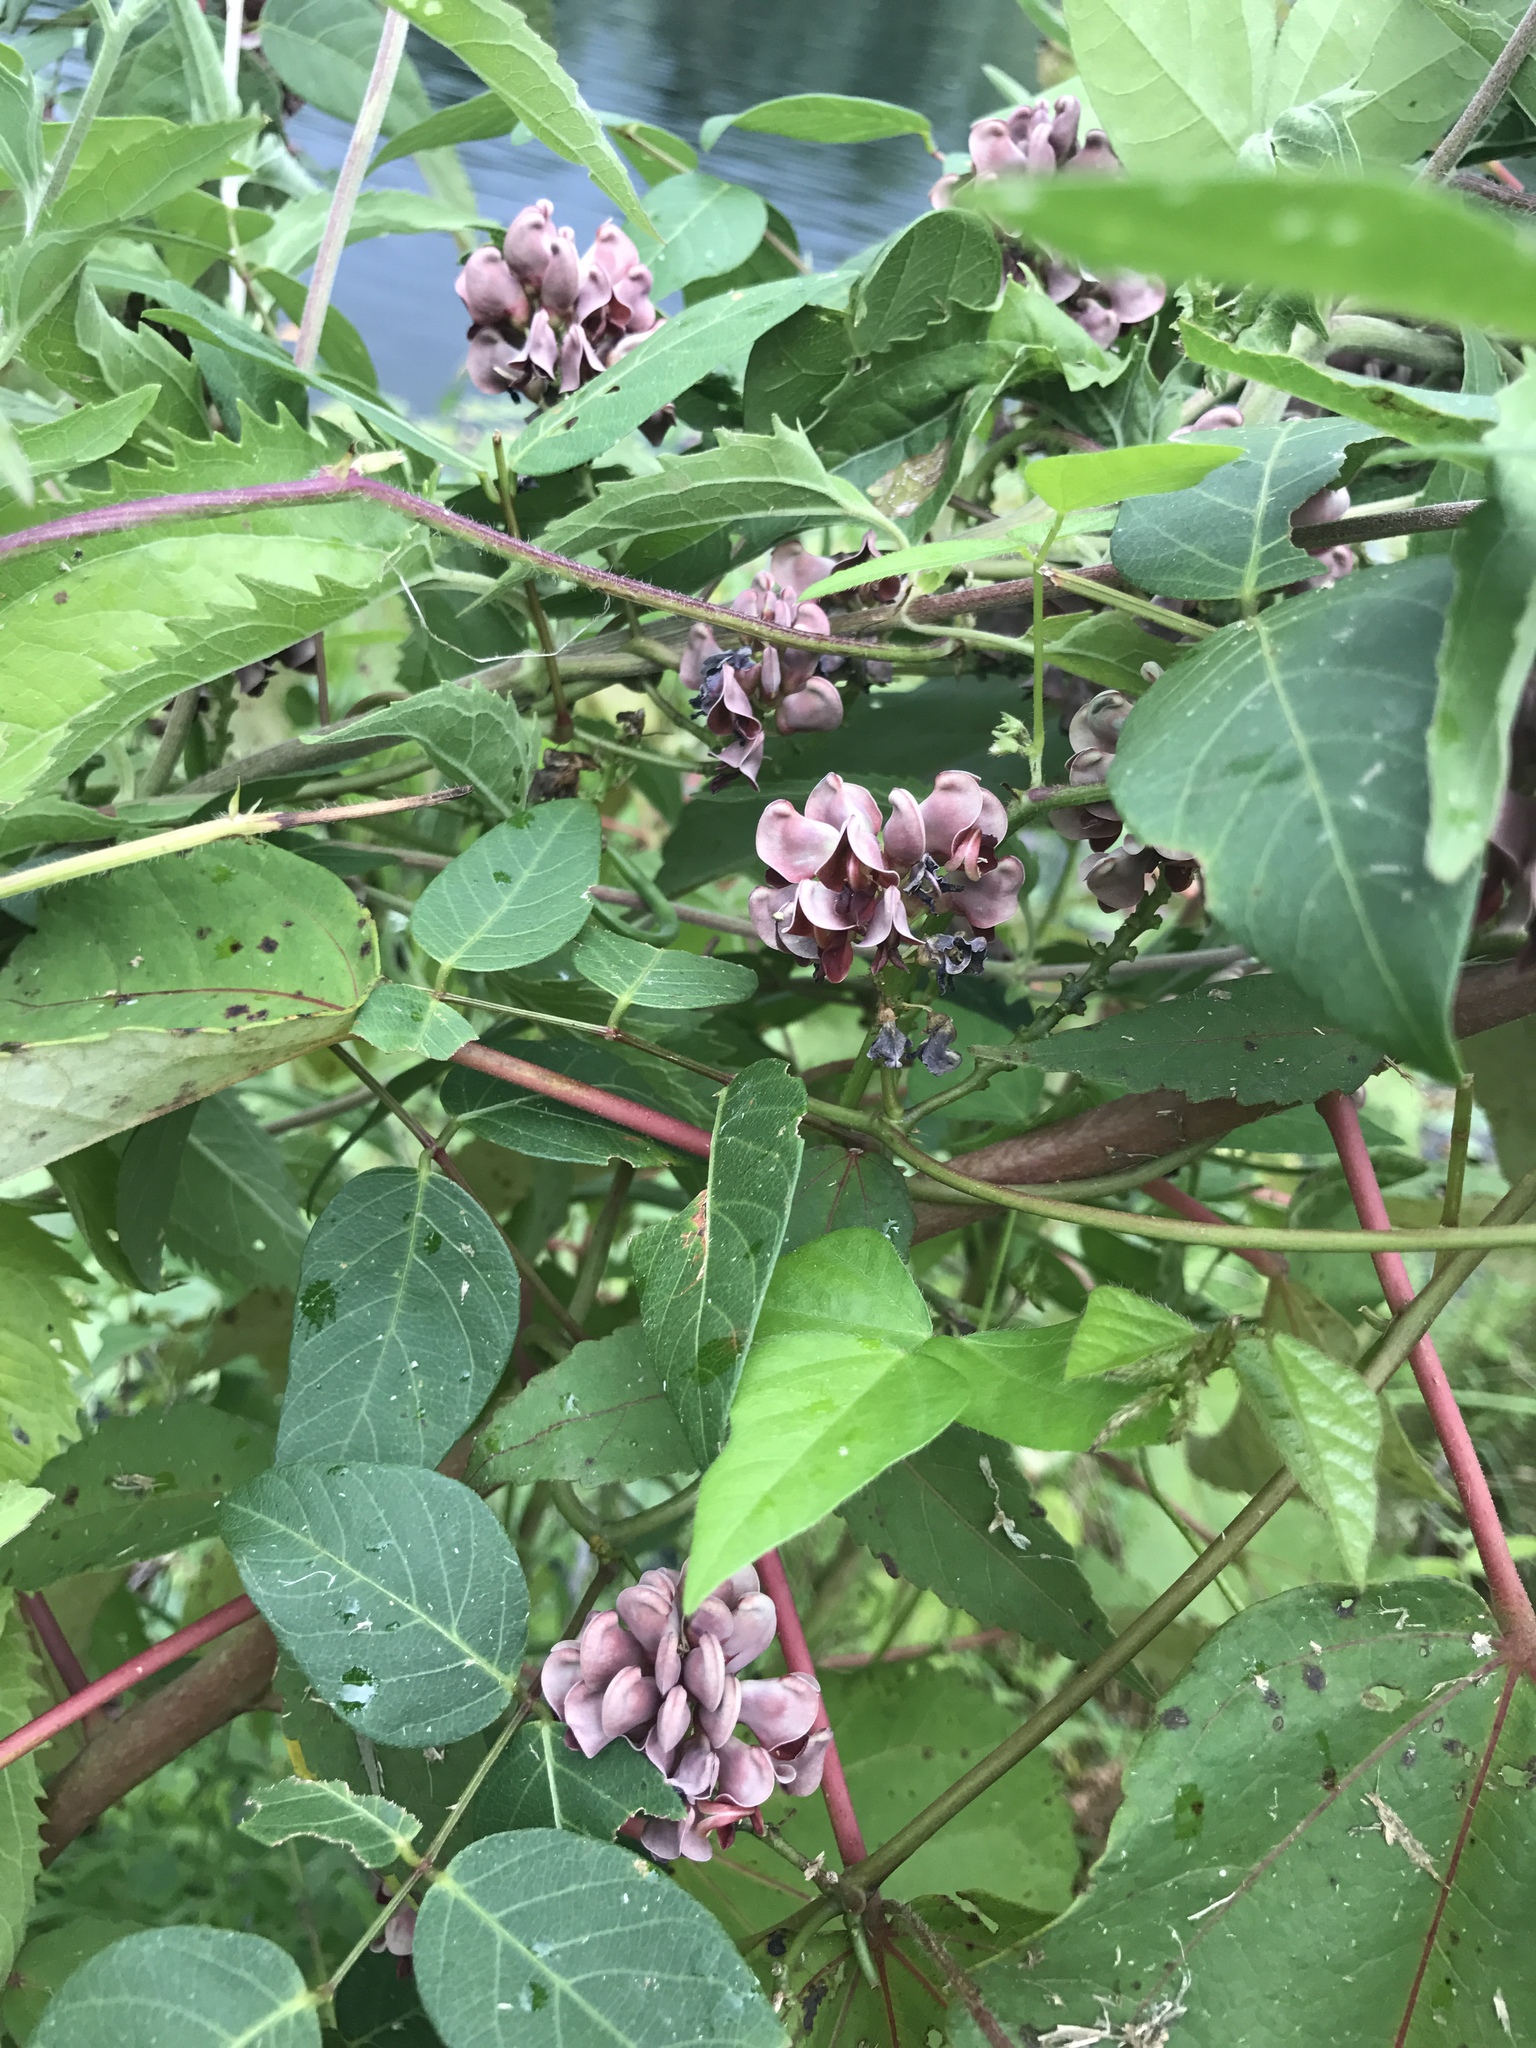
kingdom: Plantae
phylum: Tracheophyta
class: Magnoliopsida
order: Fabales
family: Fabaceae
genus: Apios
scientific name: Apios americana
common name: American potato-bean
